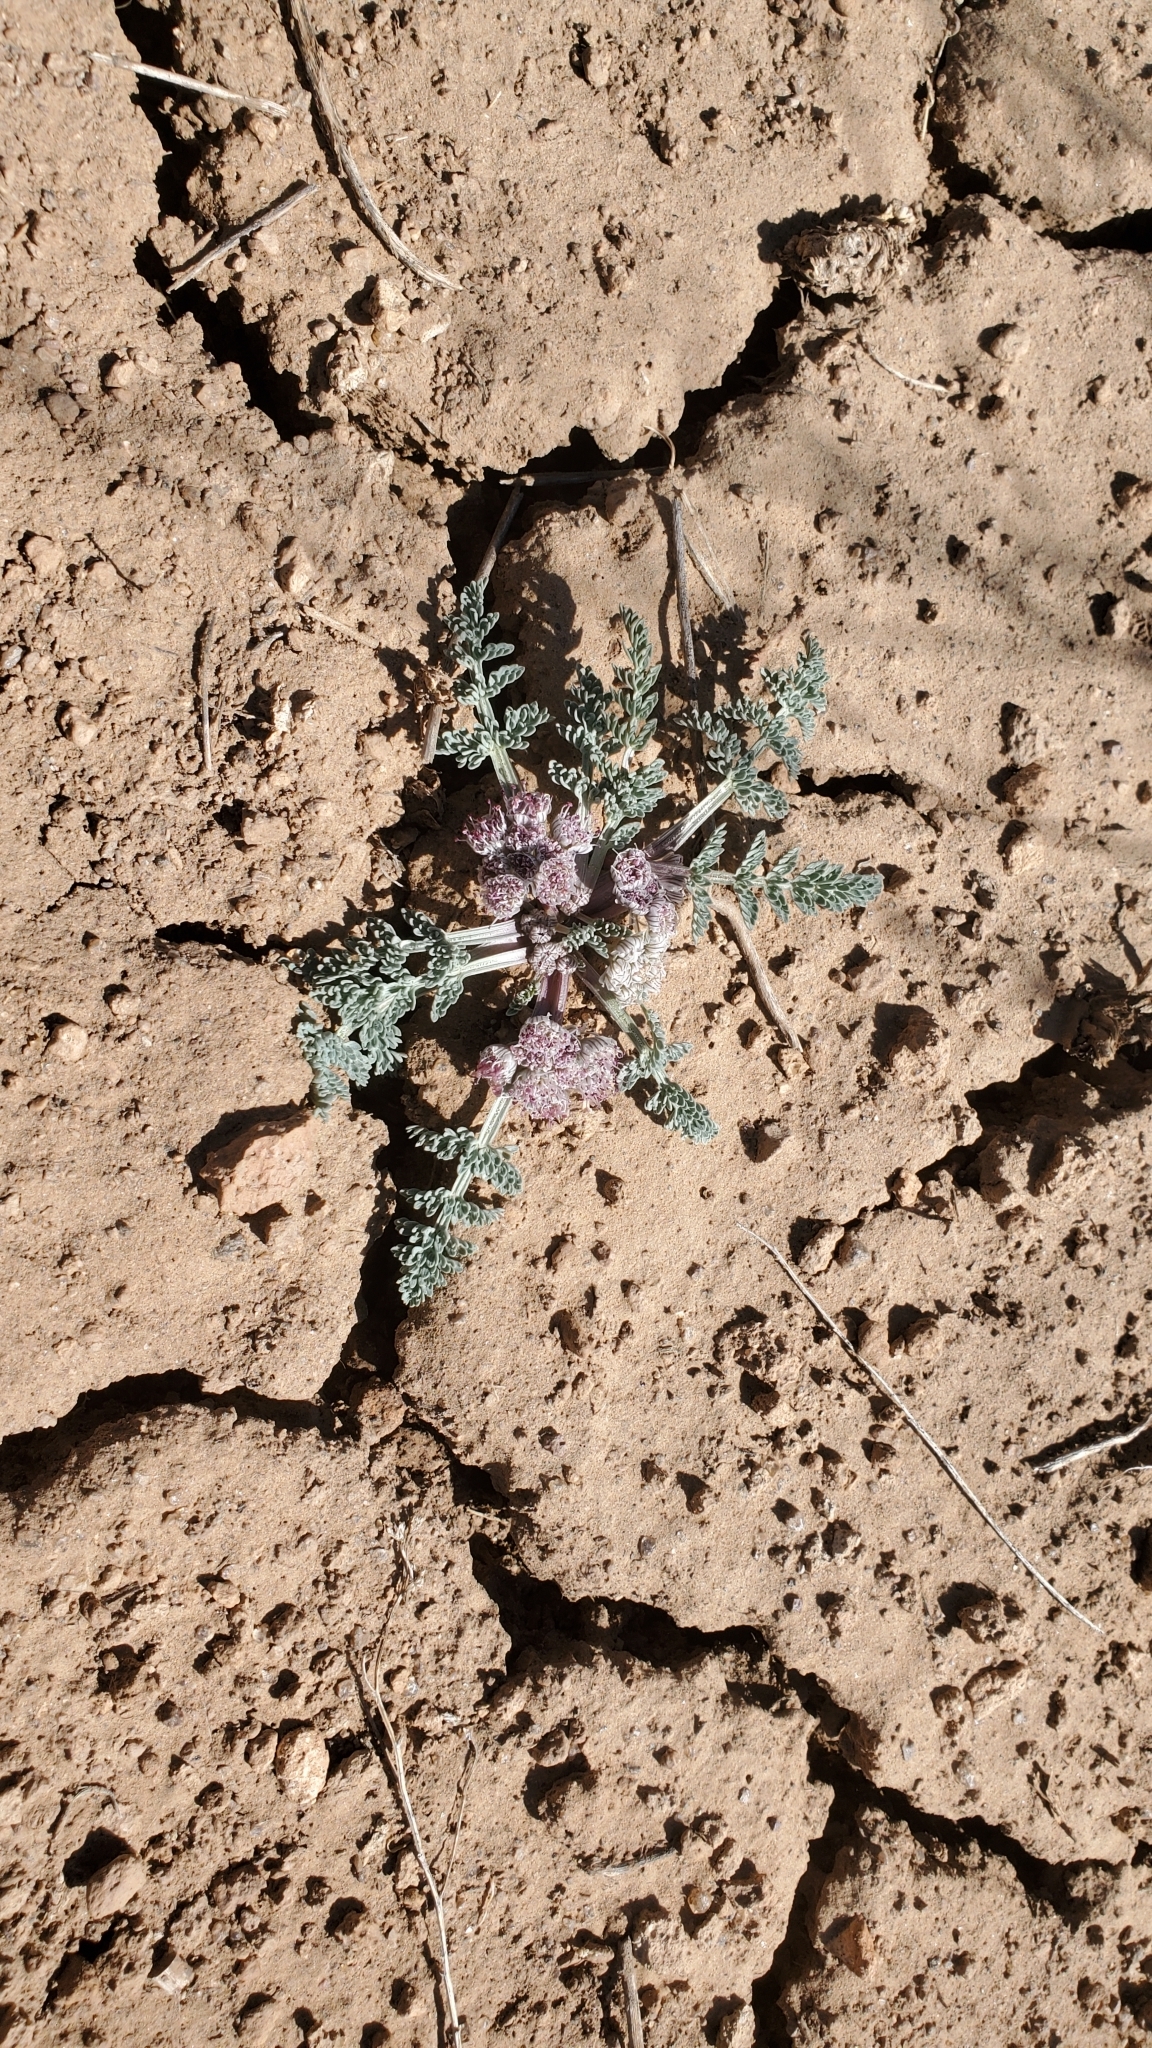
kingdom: Plantae
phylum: Tracheophyta
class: Magnoliopsida
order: Apiales
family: Apiaceae
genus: Vesper
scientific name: Vesper constancei
